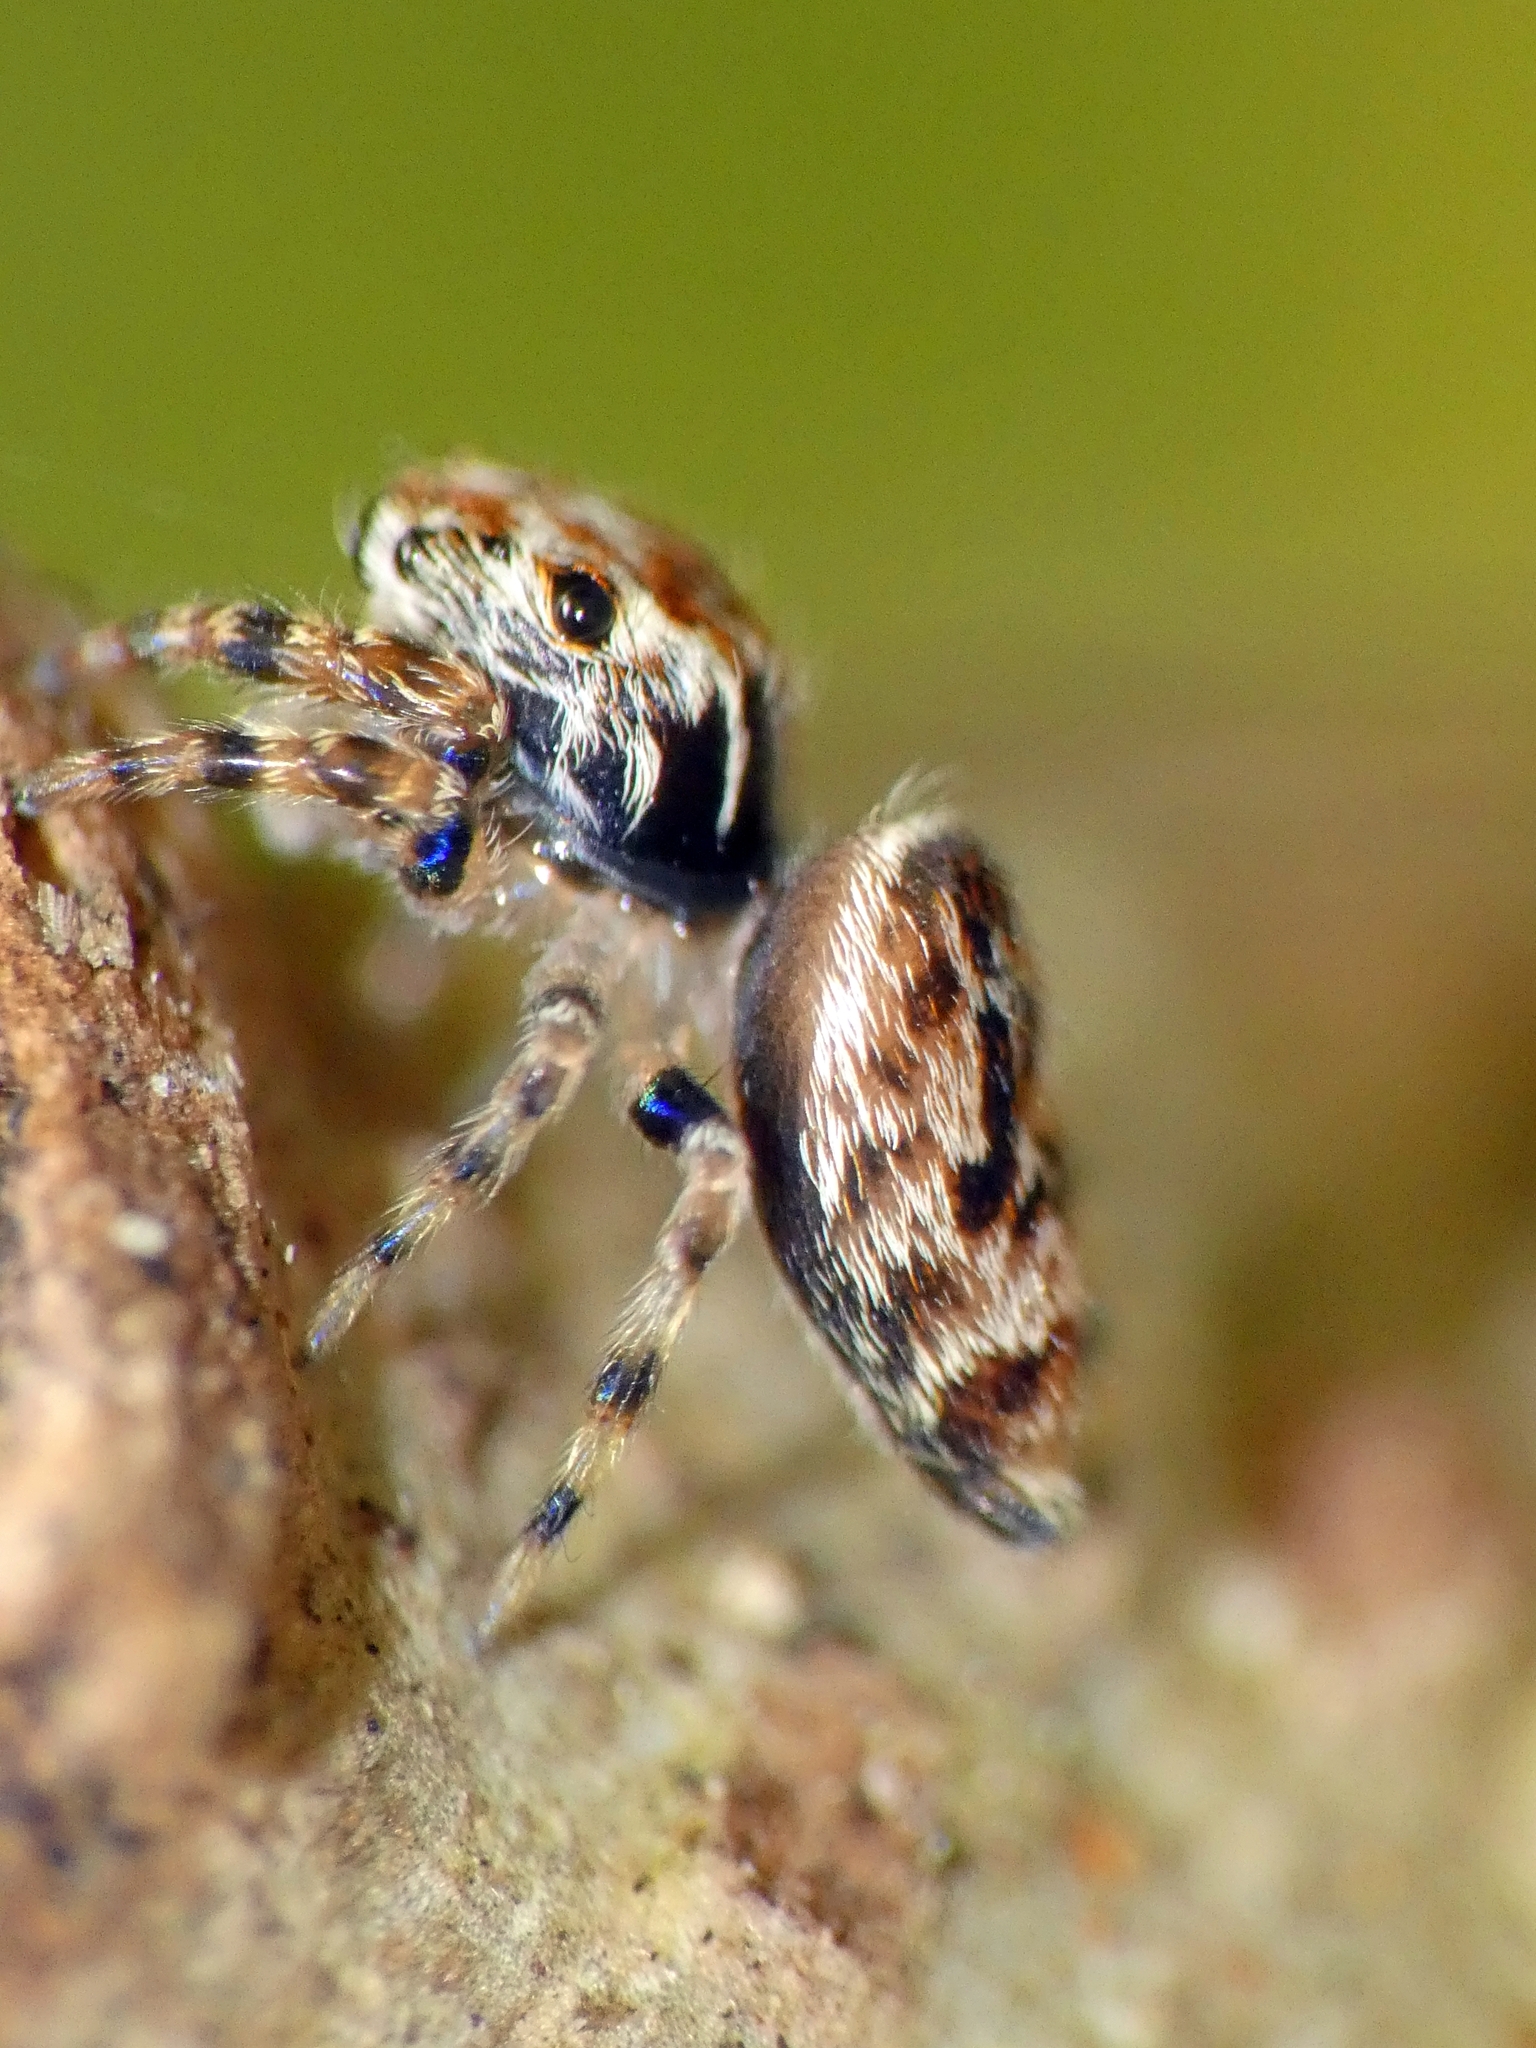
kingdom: Animalia
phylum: Arthropoda
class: Arachnida
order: Araneae
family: Salticidae
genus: Paraphilaeus
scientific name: Paraphilaeus daemeli
